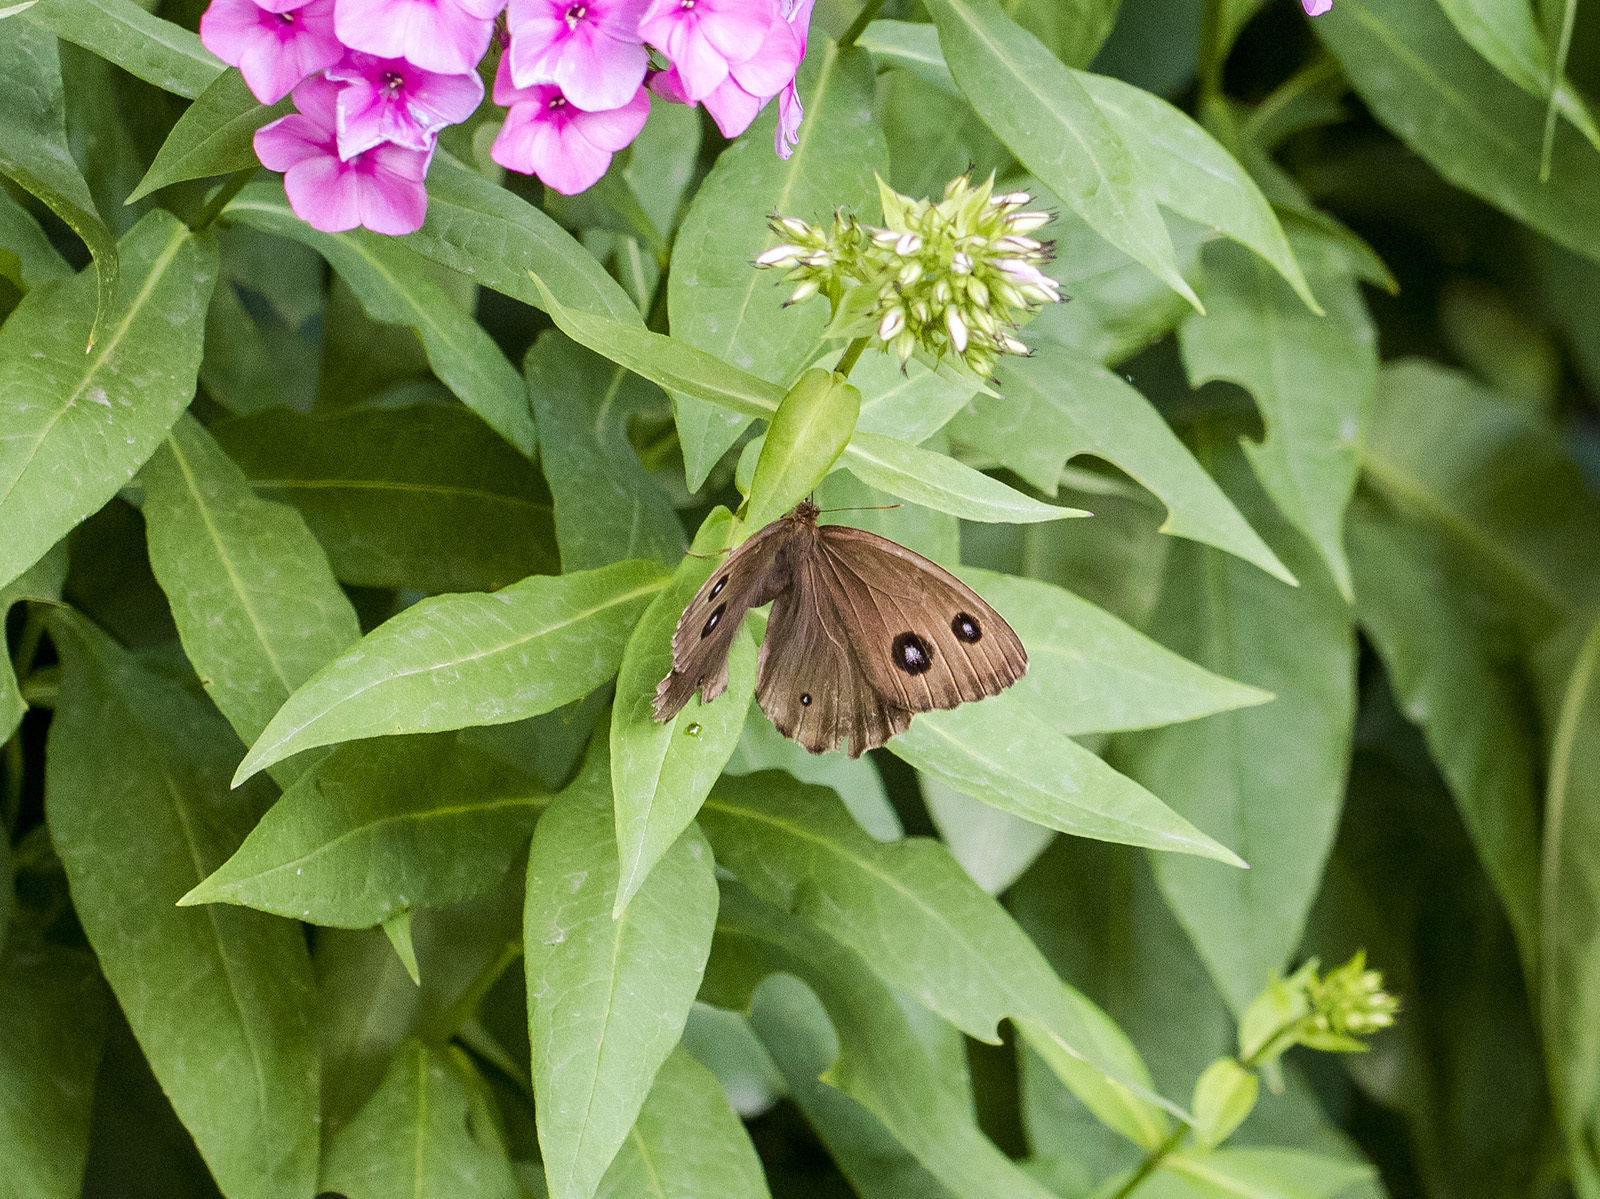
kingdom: Animalia
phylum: Arthropoda
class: Insecta
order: Lepidoptera
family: Nymphalidae
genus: Minois
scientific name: Minois dryas
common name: Dryad
